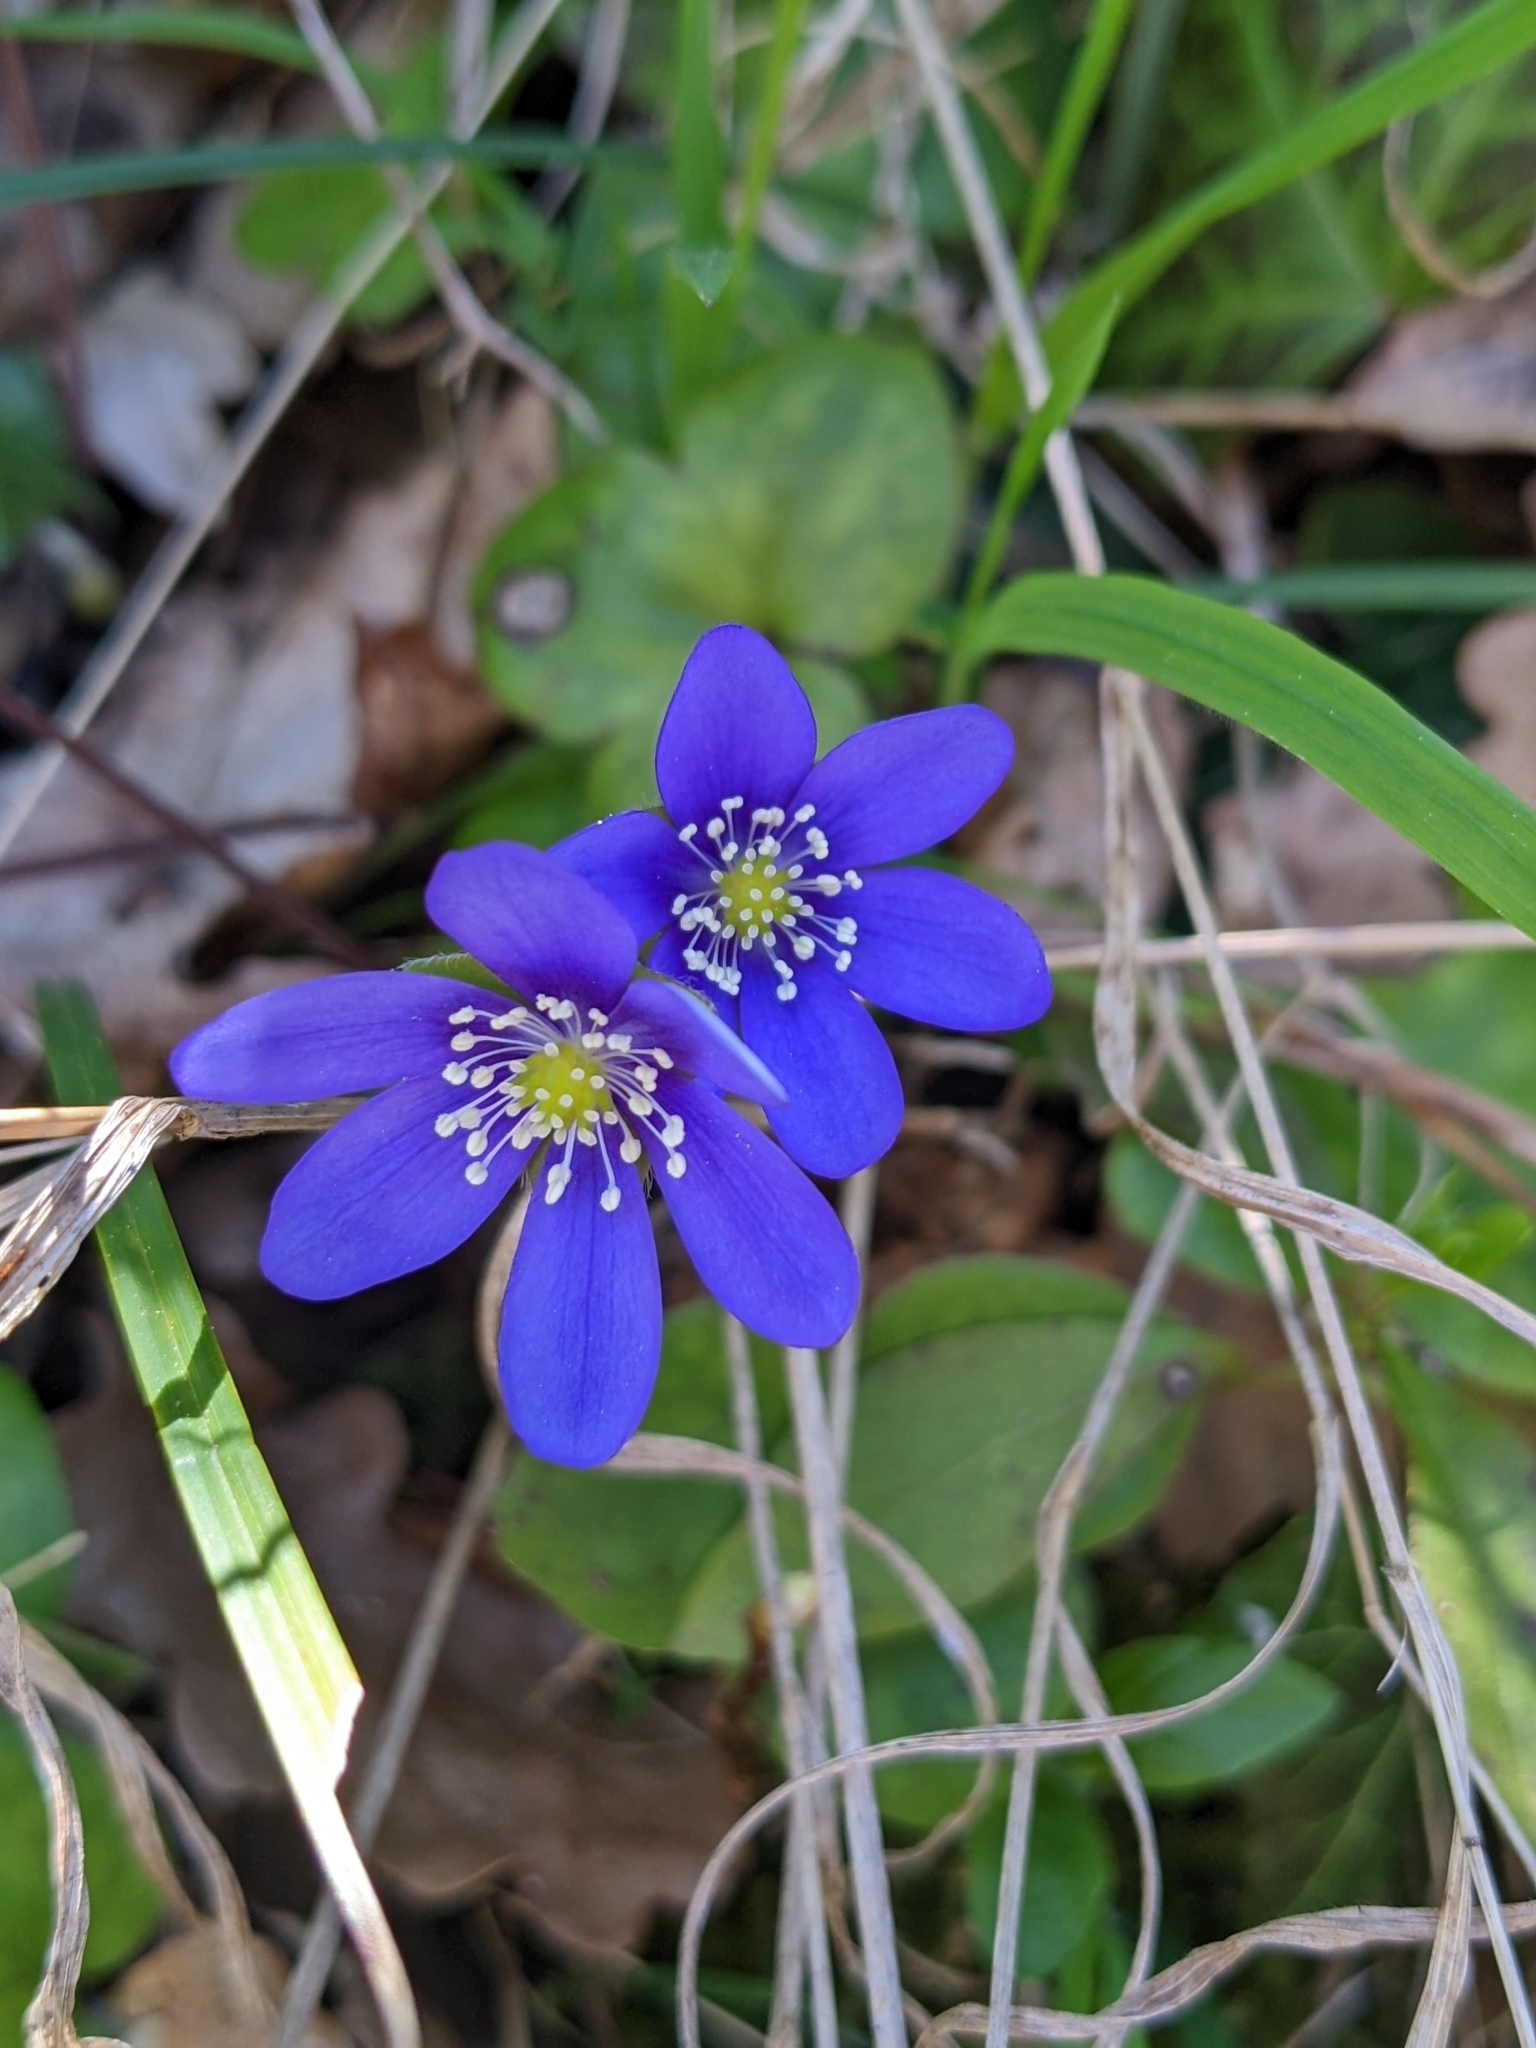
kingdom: Plantae
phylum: Tracheophyta
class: Magnoliopsida
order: Ranunculales
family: Ranunculaceae
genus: Hepatica
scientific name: Hepatica nobilis
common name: Liverleaf
